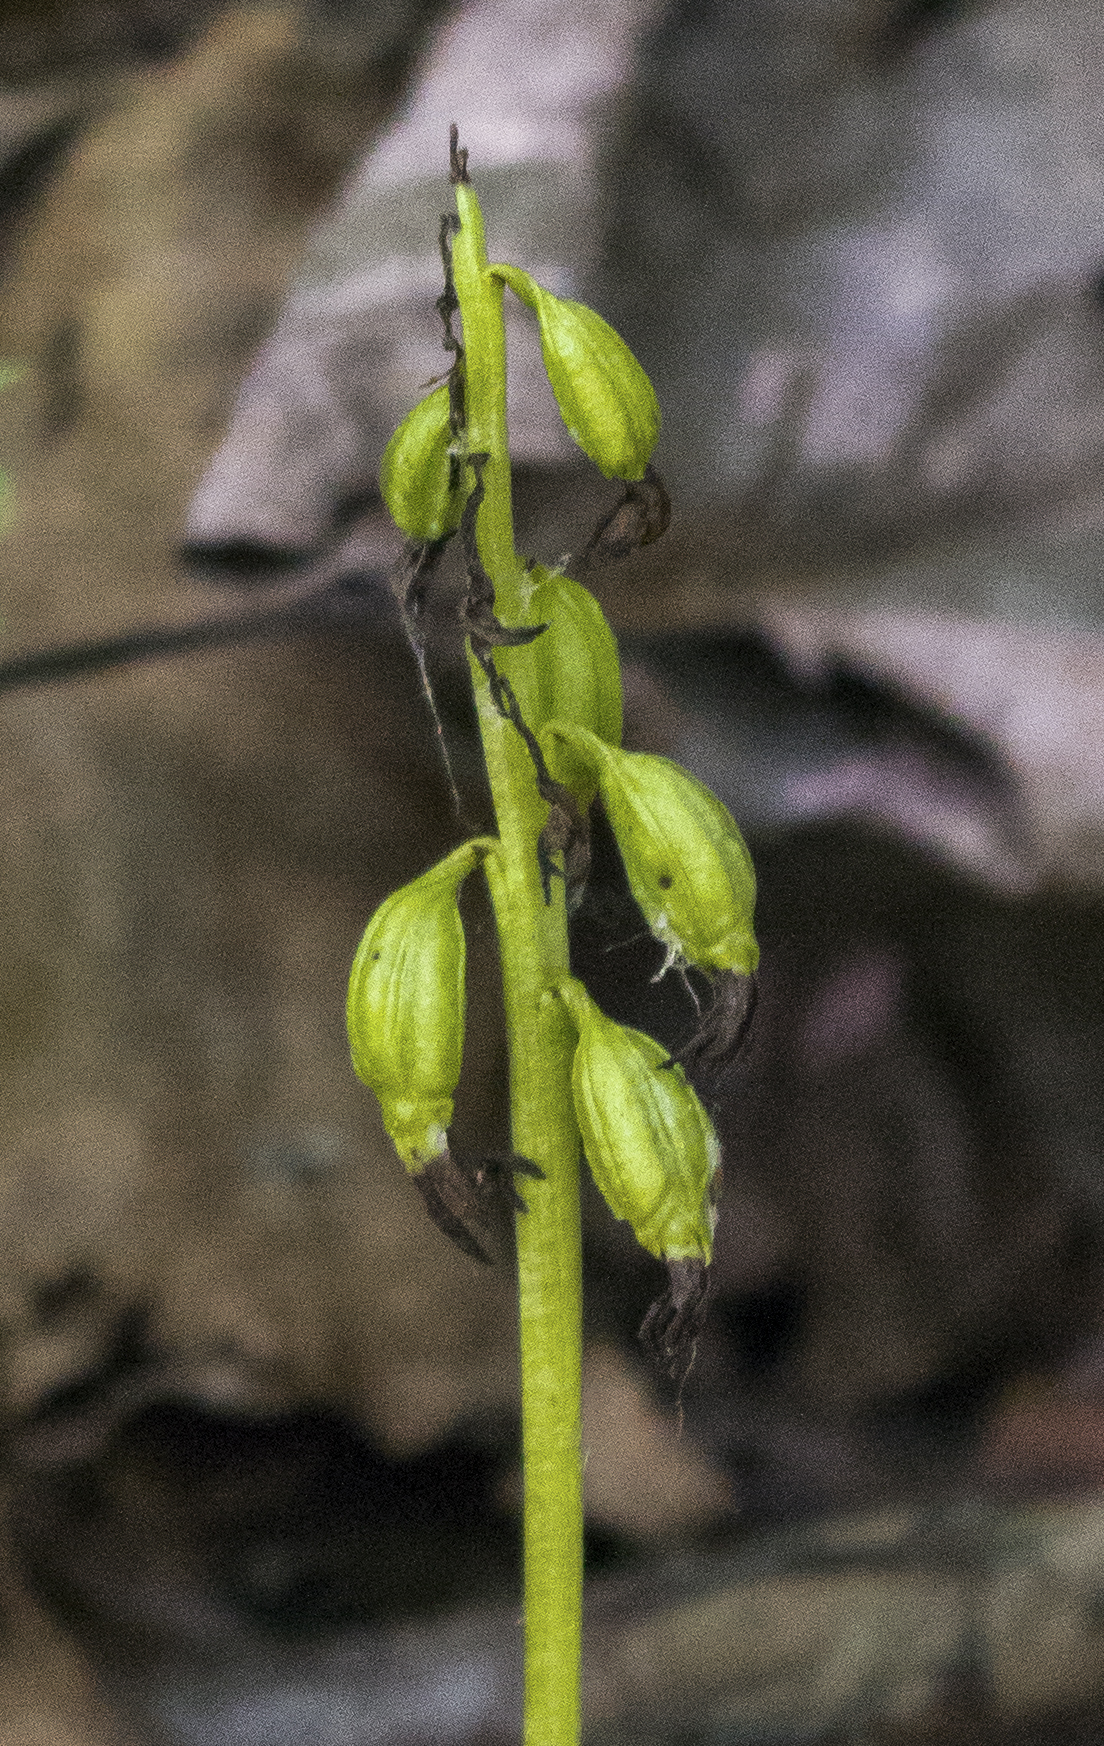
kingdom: Plantae
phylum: Tracheophyta
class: Liliopsida
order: Asparagales
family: Orchidaceae
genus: Corallorhiza
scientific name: Corallorhiza trifida
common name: Yellow coralroot
